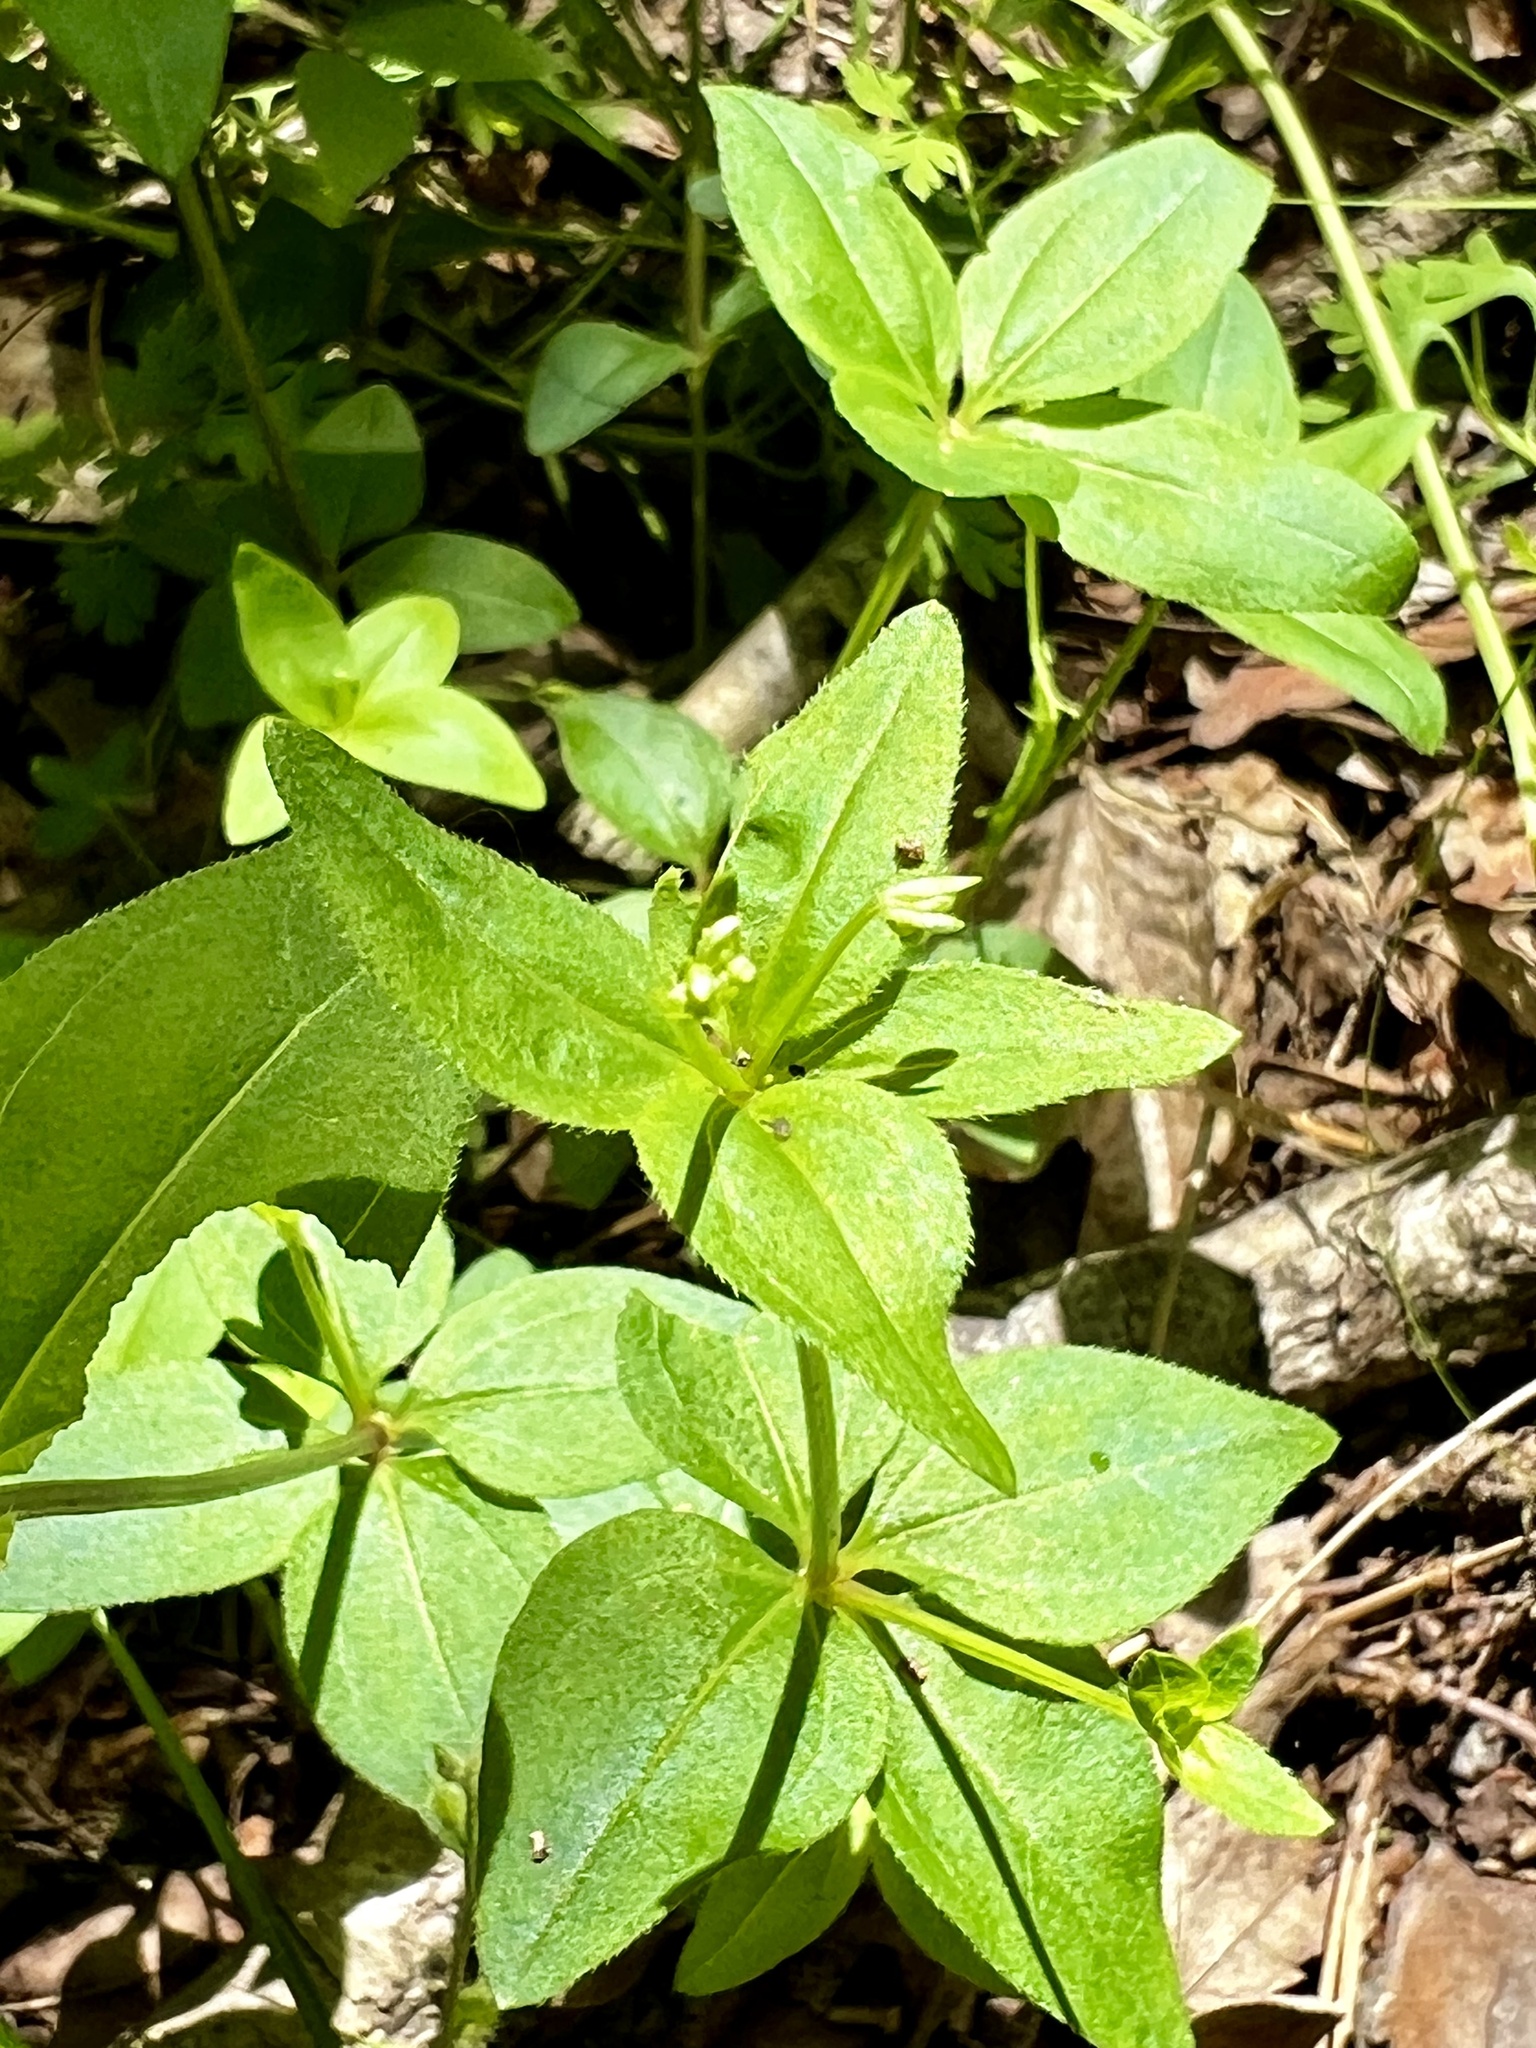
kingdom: Plantae
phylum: Tracheophyta
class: Magnoliopsida
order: Gentianales
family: Rubiaceae
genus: Galium
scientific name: Galium circaezans
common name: Forest bedstraw
